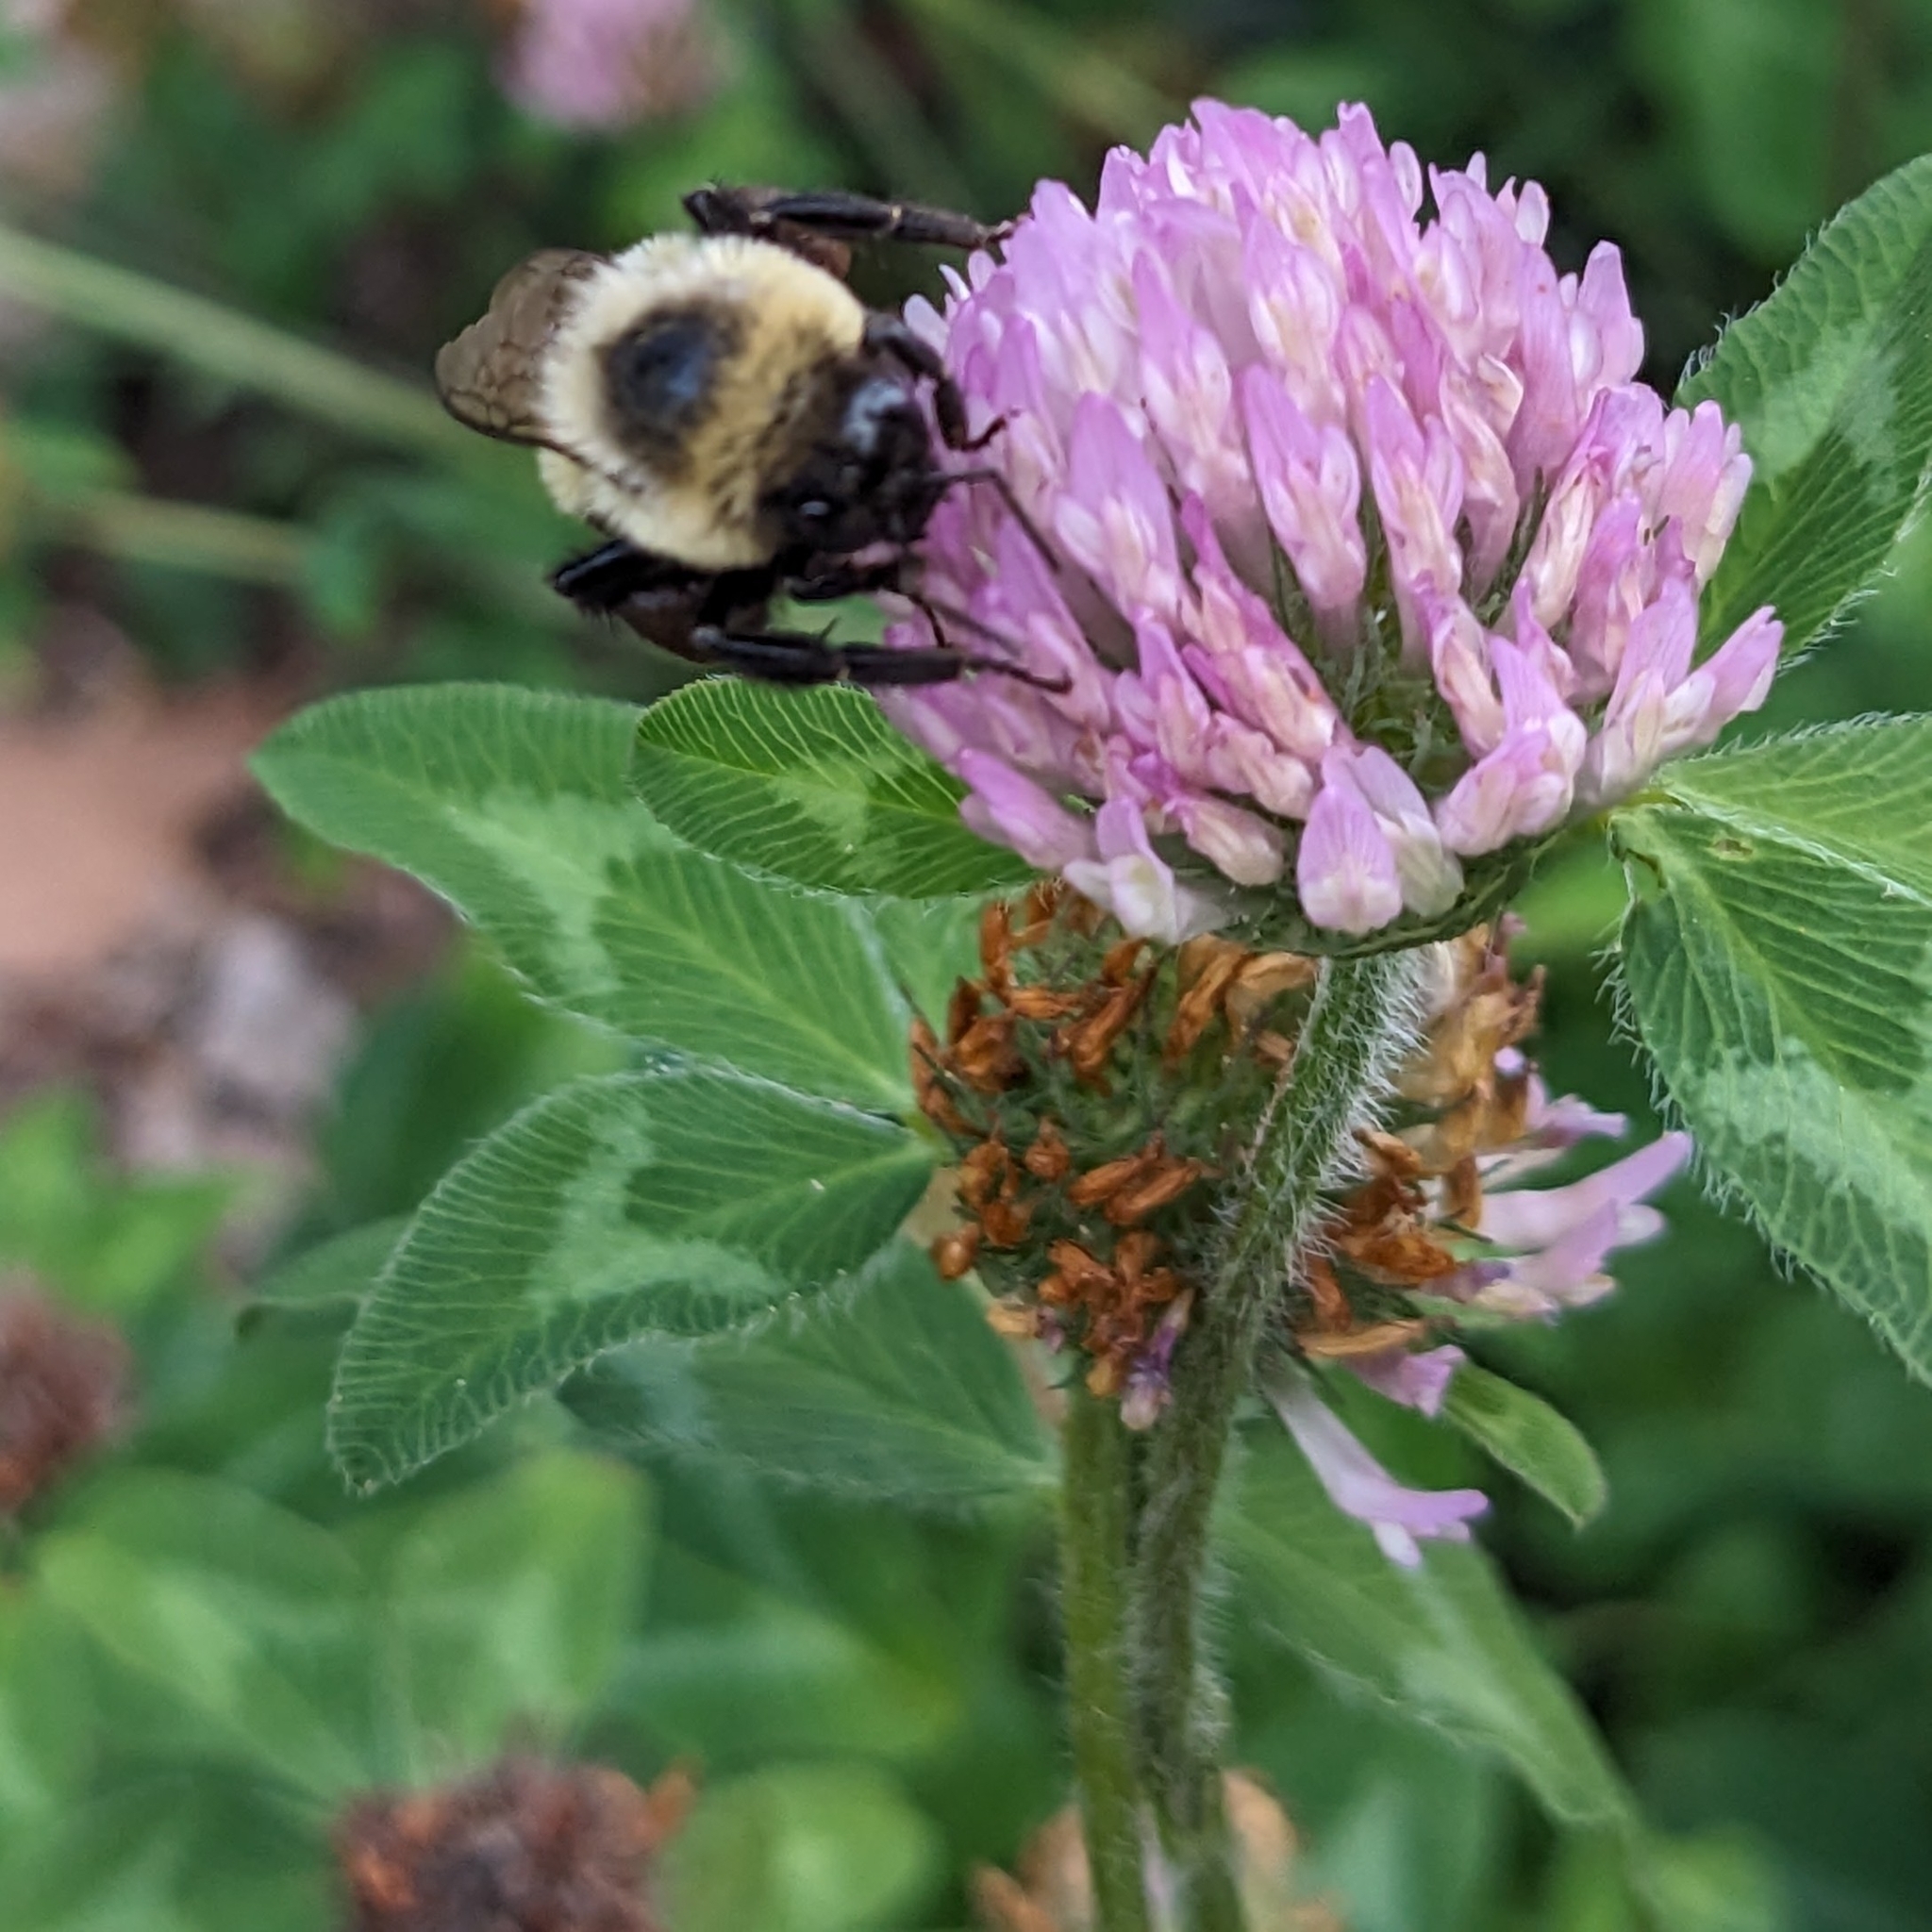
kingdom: Plantae
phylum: Tracheophyta
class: Magnoliopsida
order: Fabales
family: Fabaceae
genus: Trifolium
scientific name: Trifolium pratense
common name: Red clover
